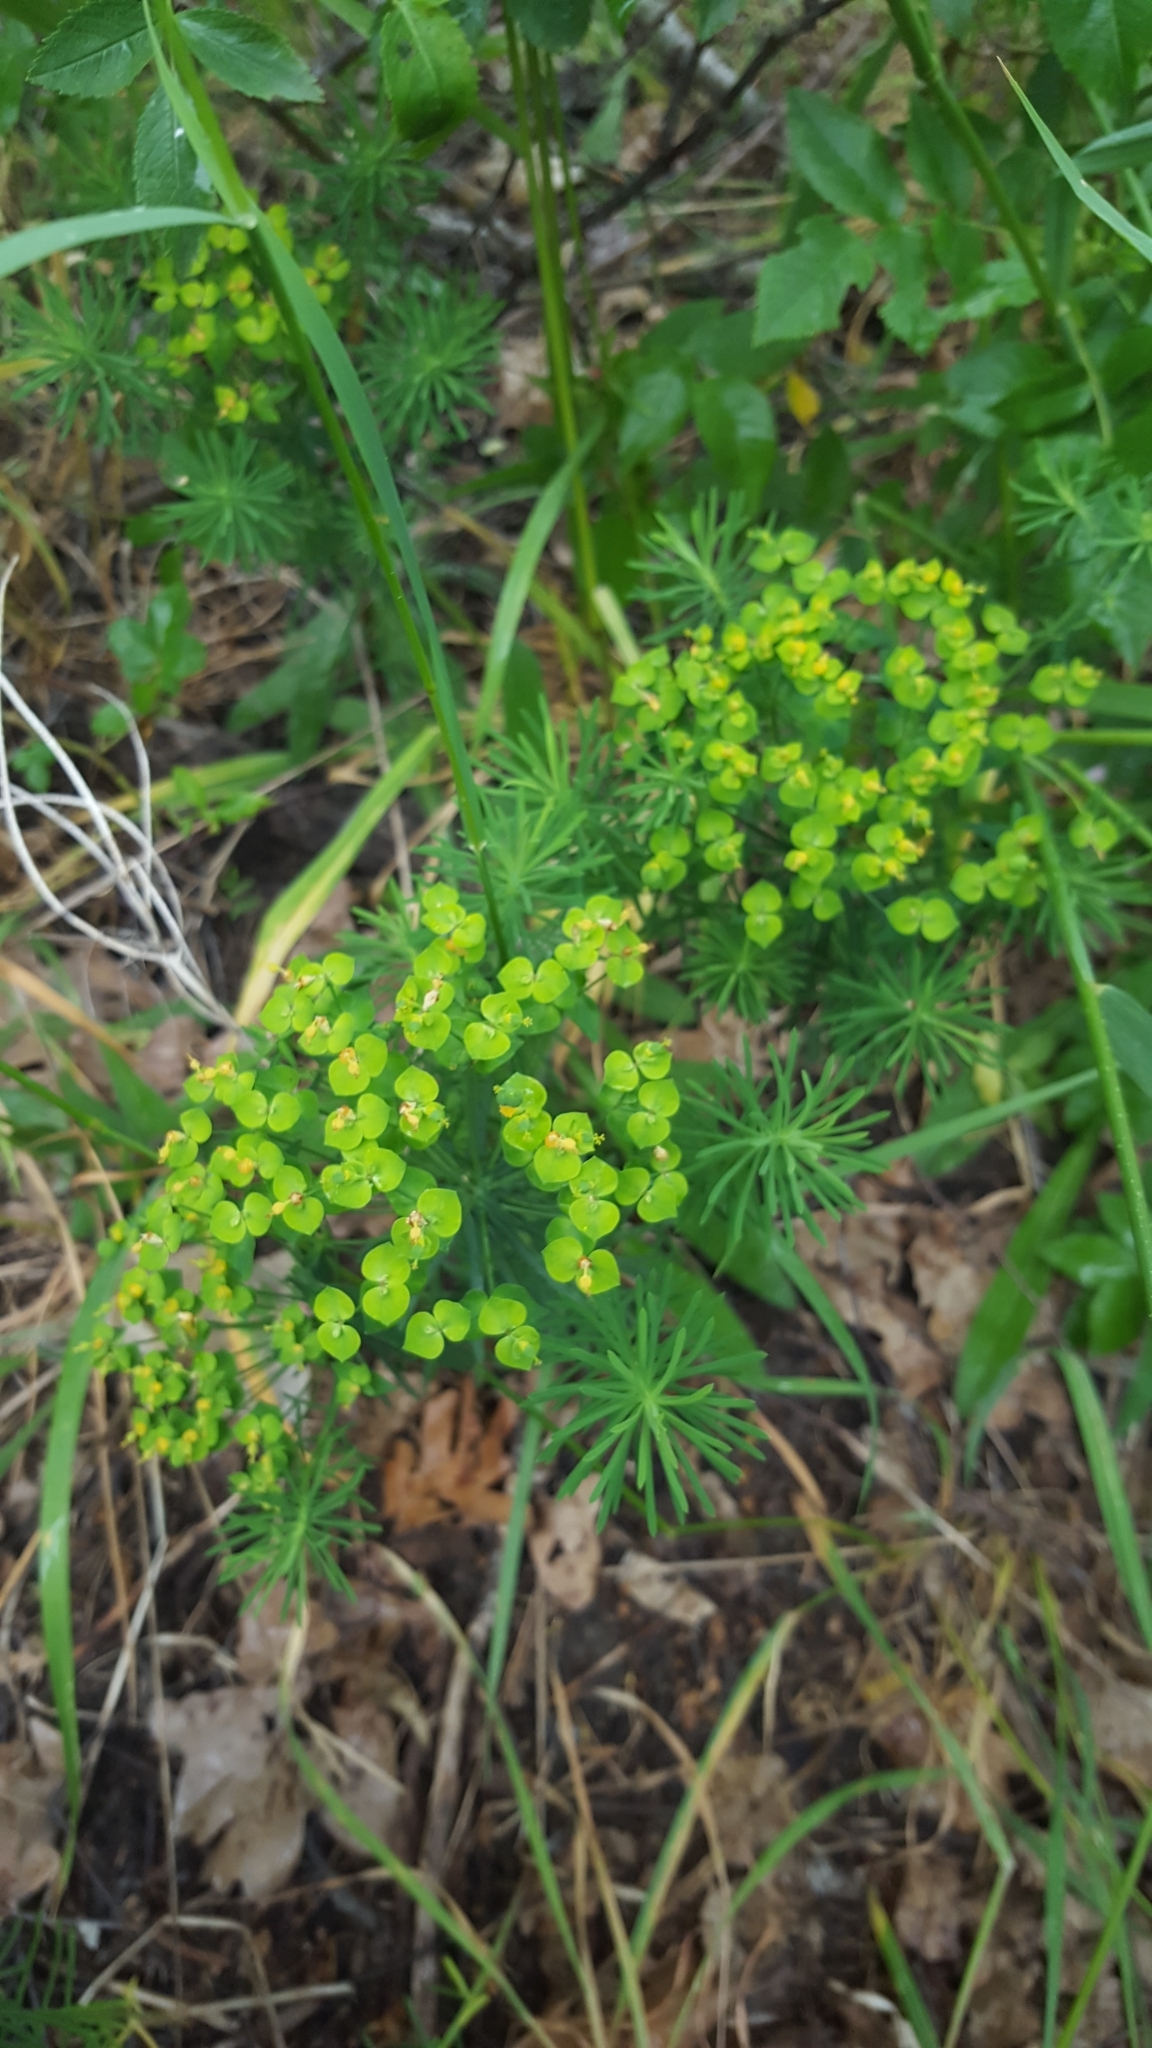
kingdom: Plantae
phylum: Tracheophyta
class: Magnoliopsida
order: Malpighiales
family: Euphorbiaceae
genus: Euphorbia
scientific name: Euphorbia cyparissias
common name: Cypress spurge
